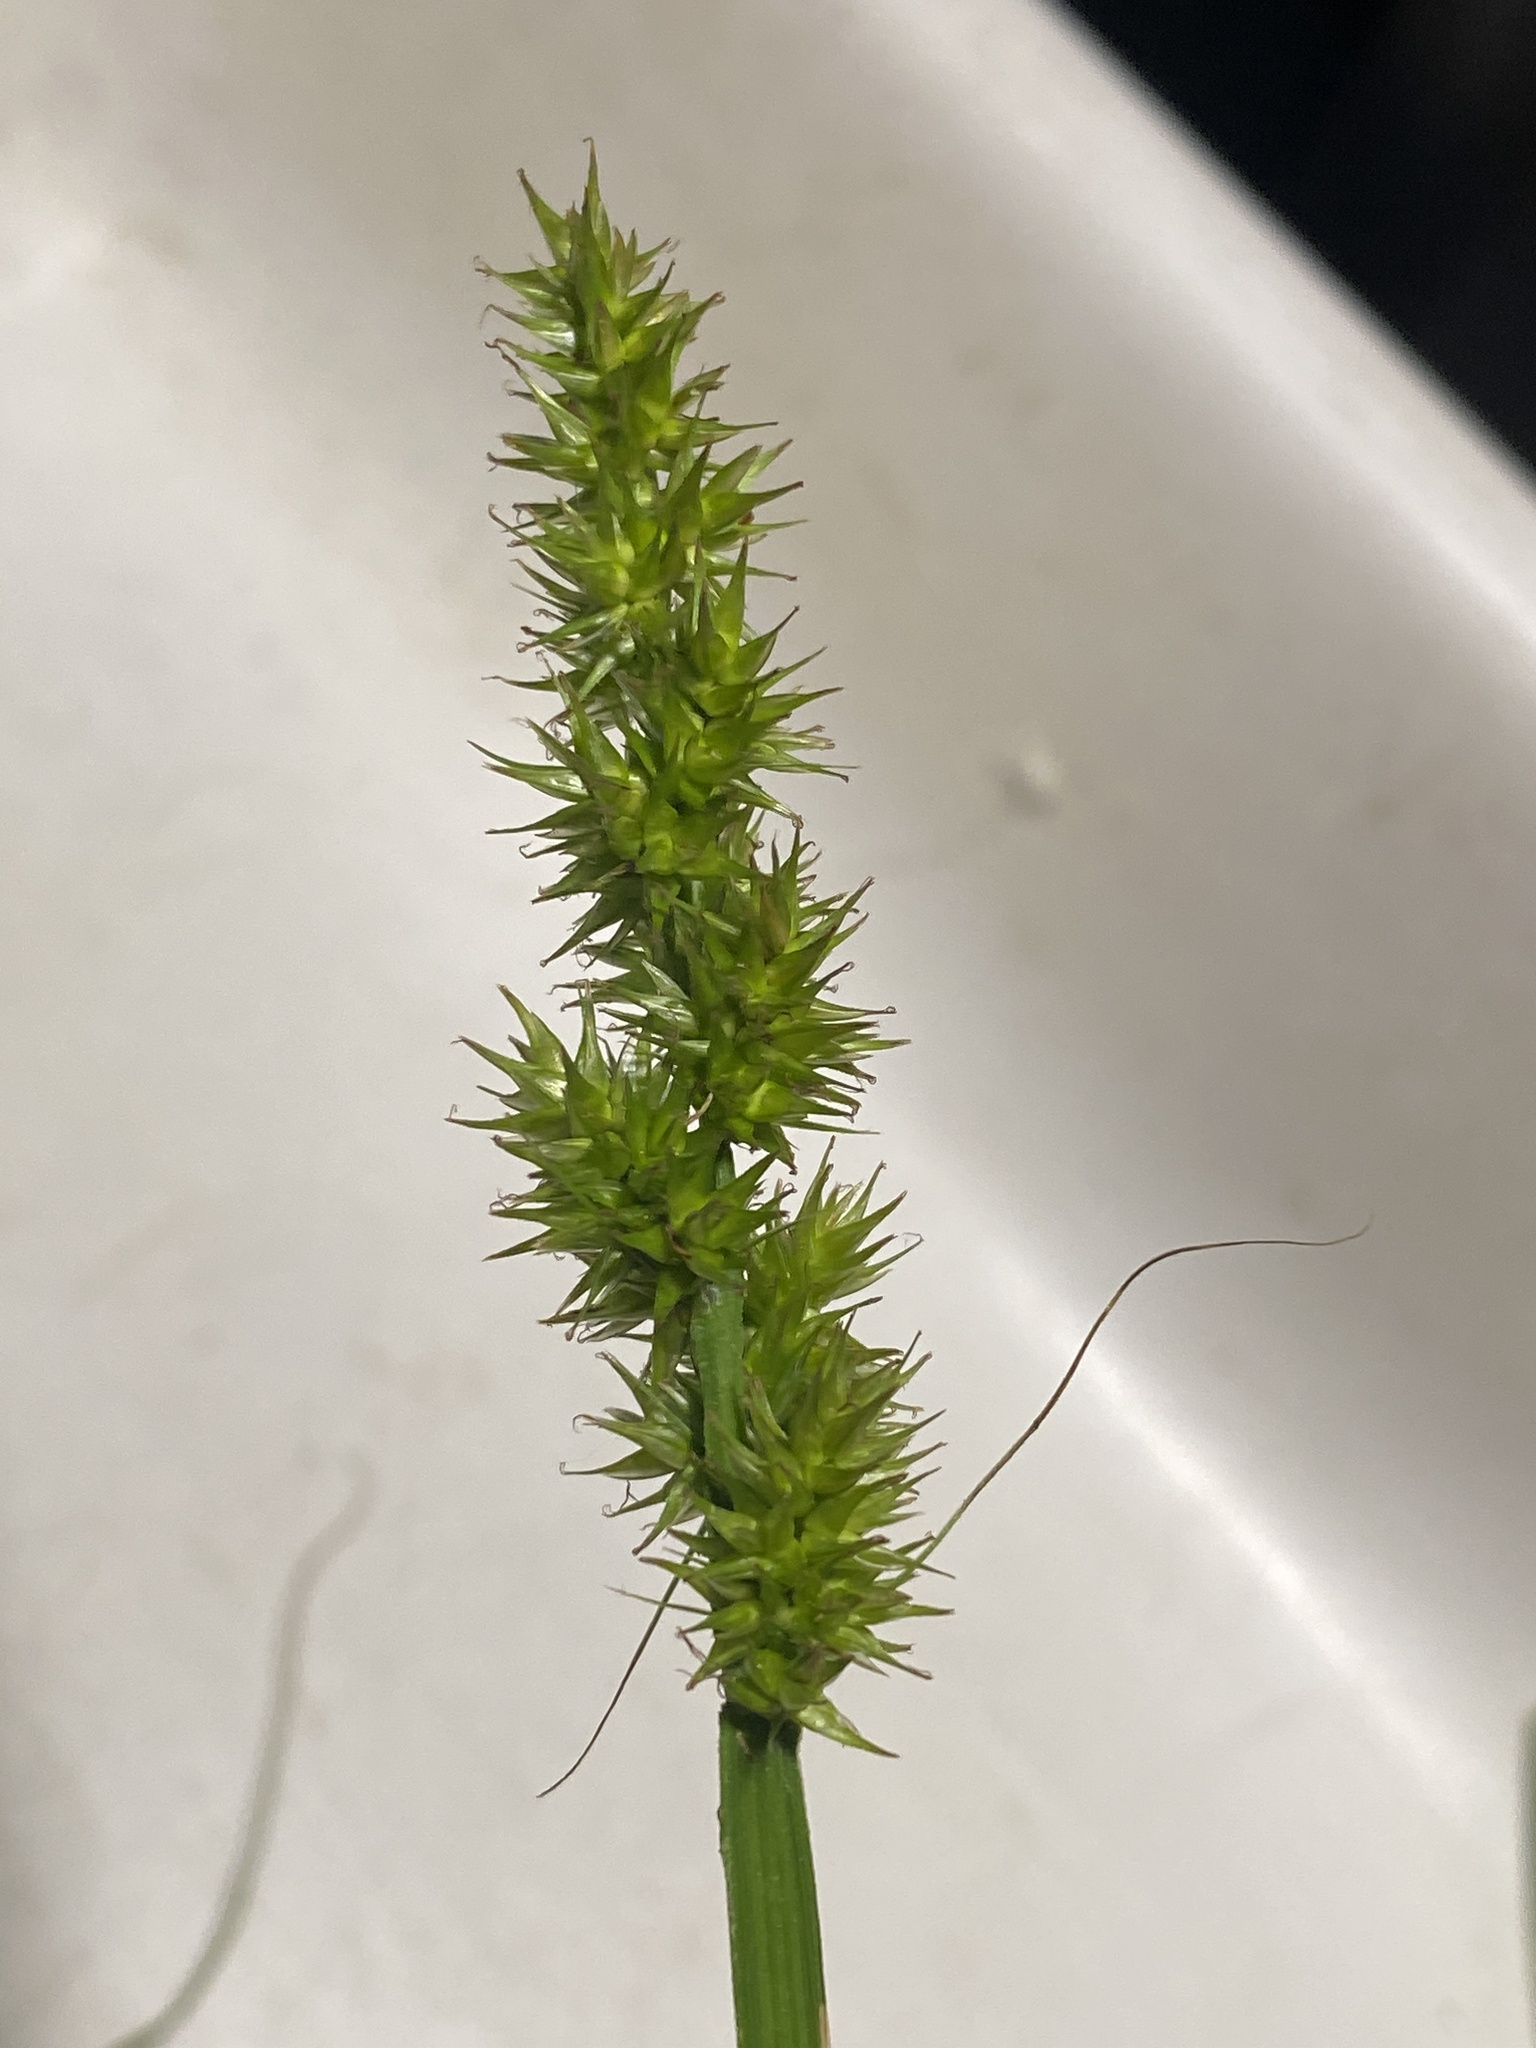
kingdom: Plantae
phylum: Tracheophyta
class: Liliopsida
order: Poales
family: Cyperaceae
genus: Carex
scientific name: Carex stipata
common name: Awl-fruited sedge
